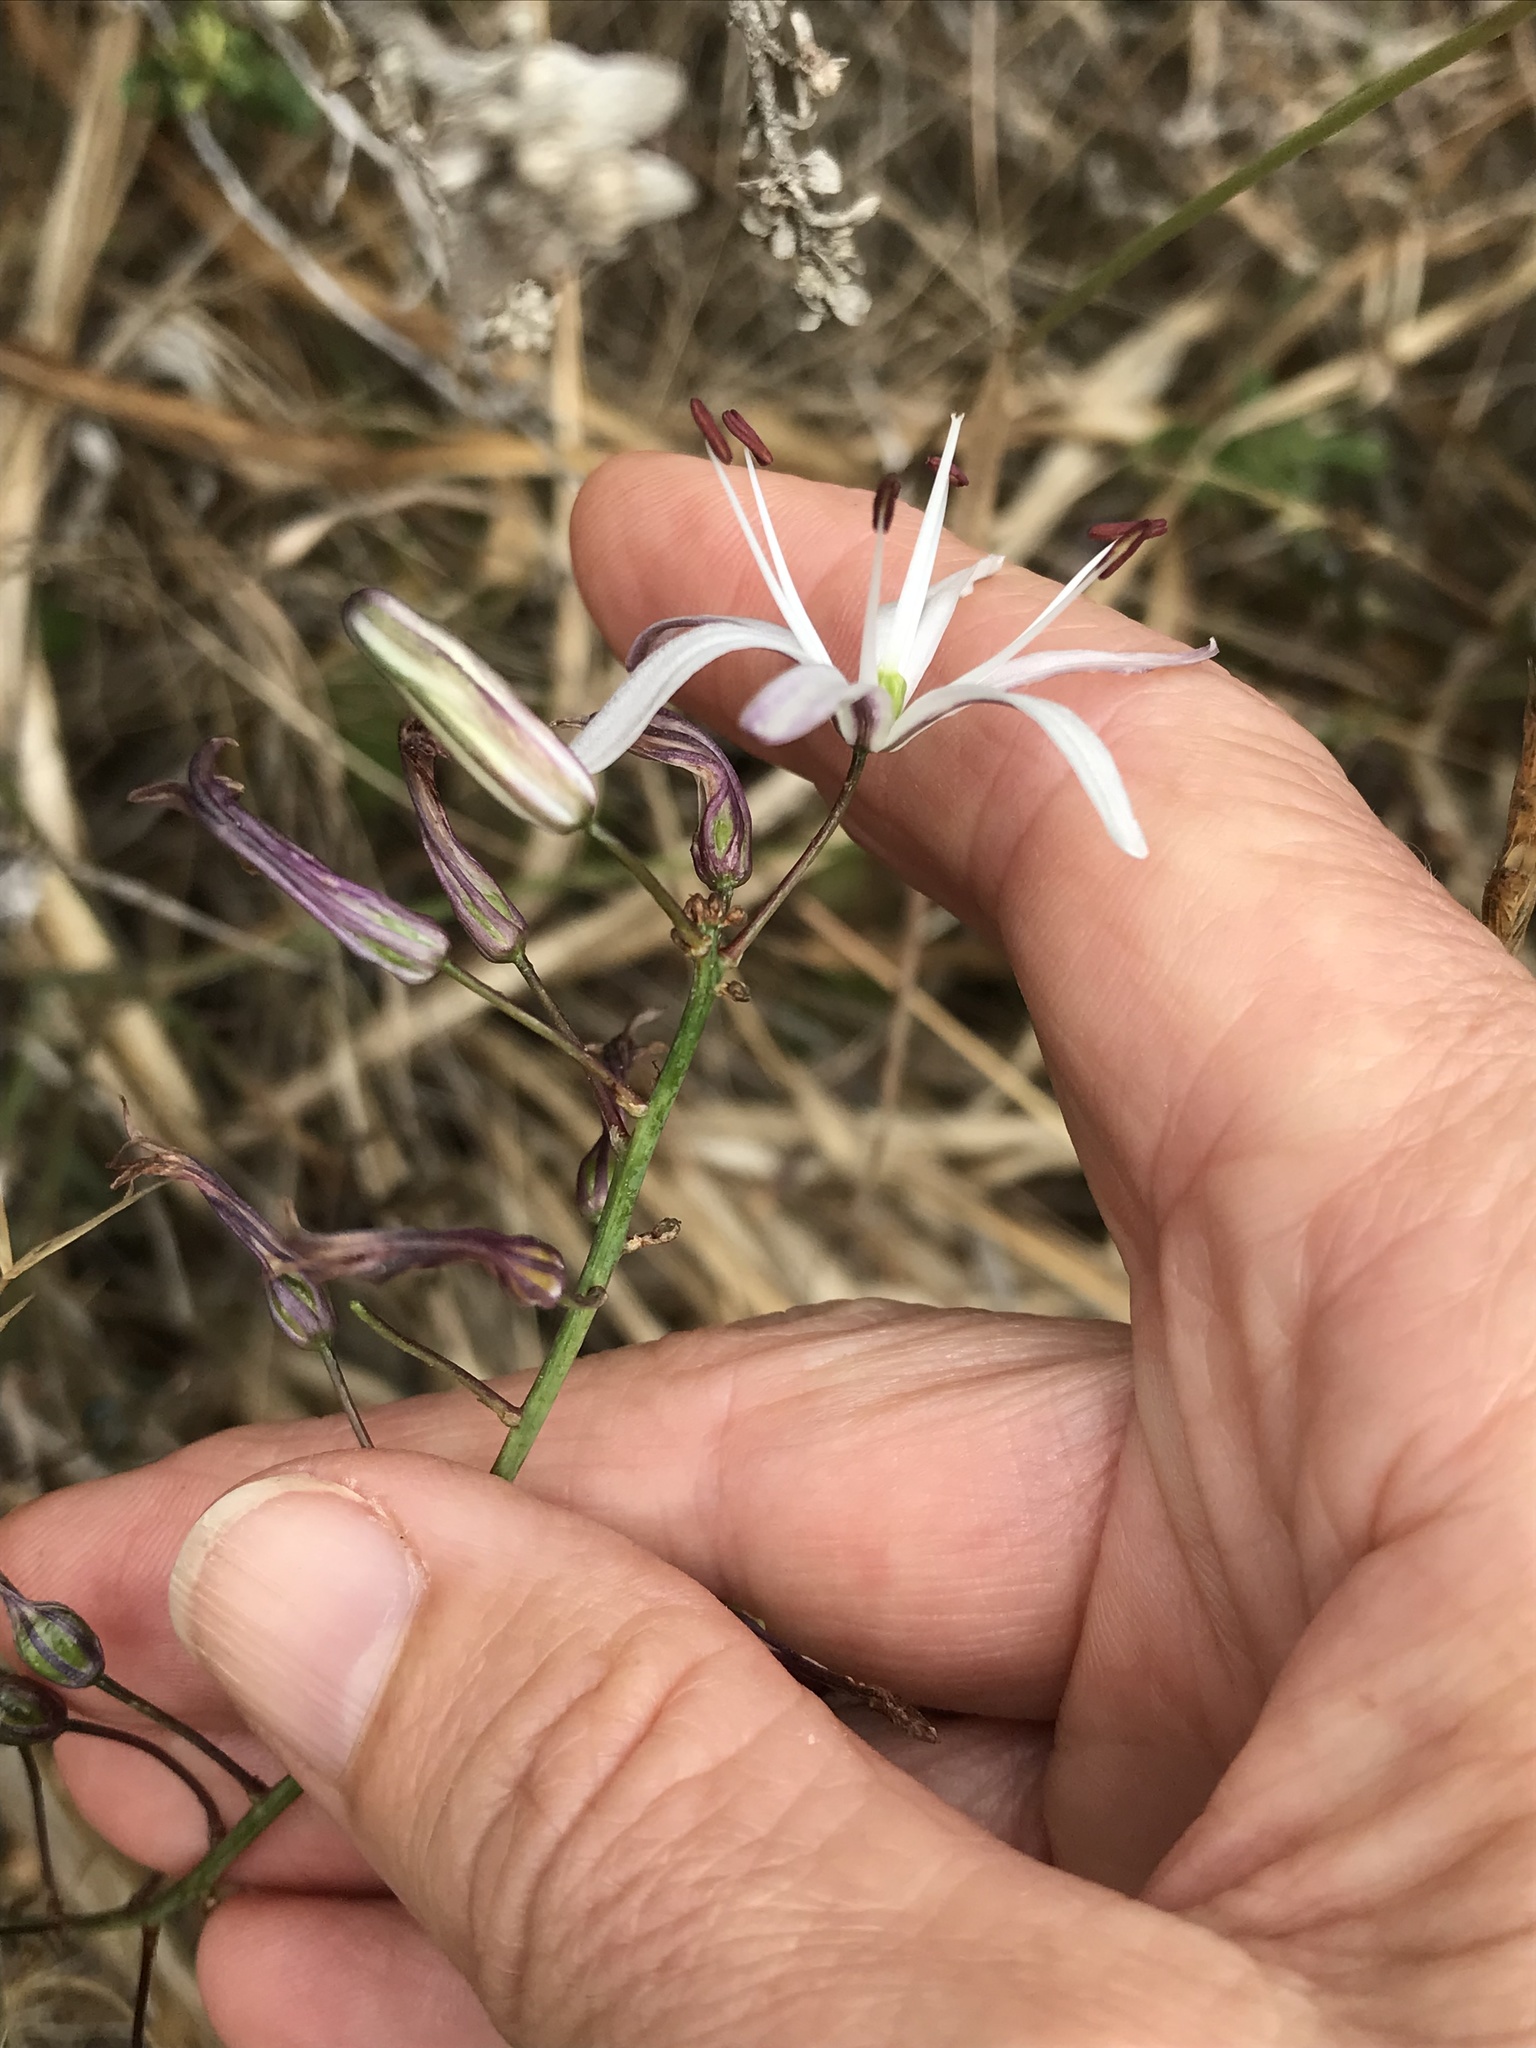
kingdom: Plantae
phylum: Tracheophyta
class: Liliopsida
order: Asparagales
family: Asparagaceae
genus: Chlorogalum
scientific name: Chlorogalum pomeridianum
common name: Amole
